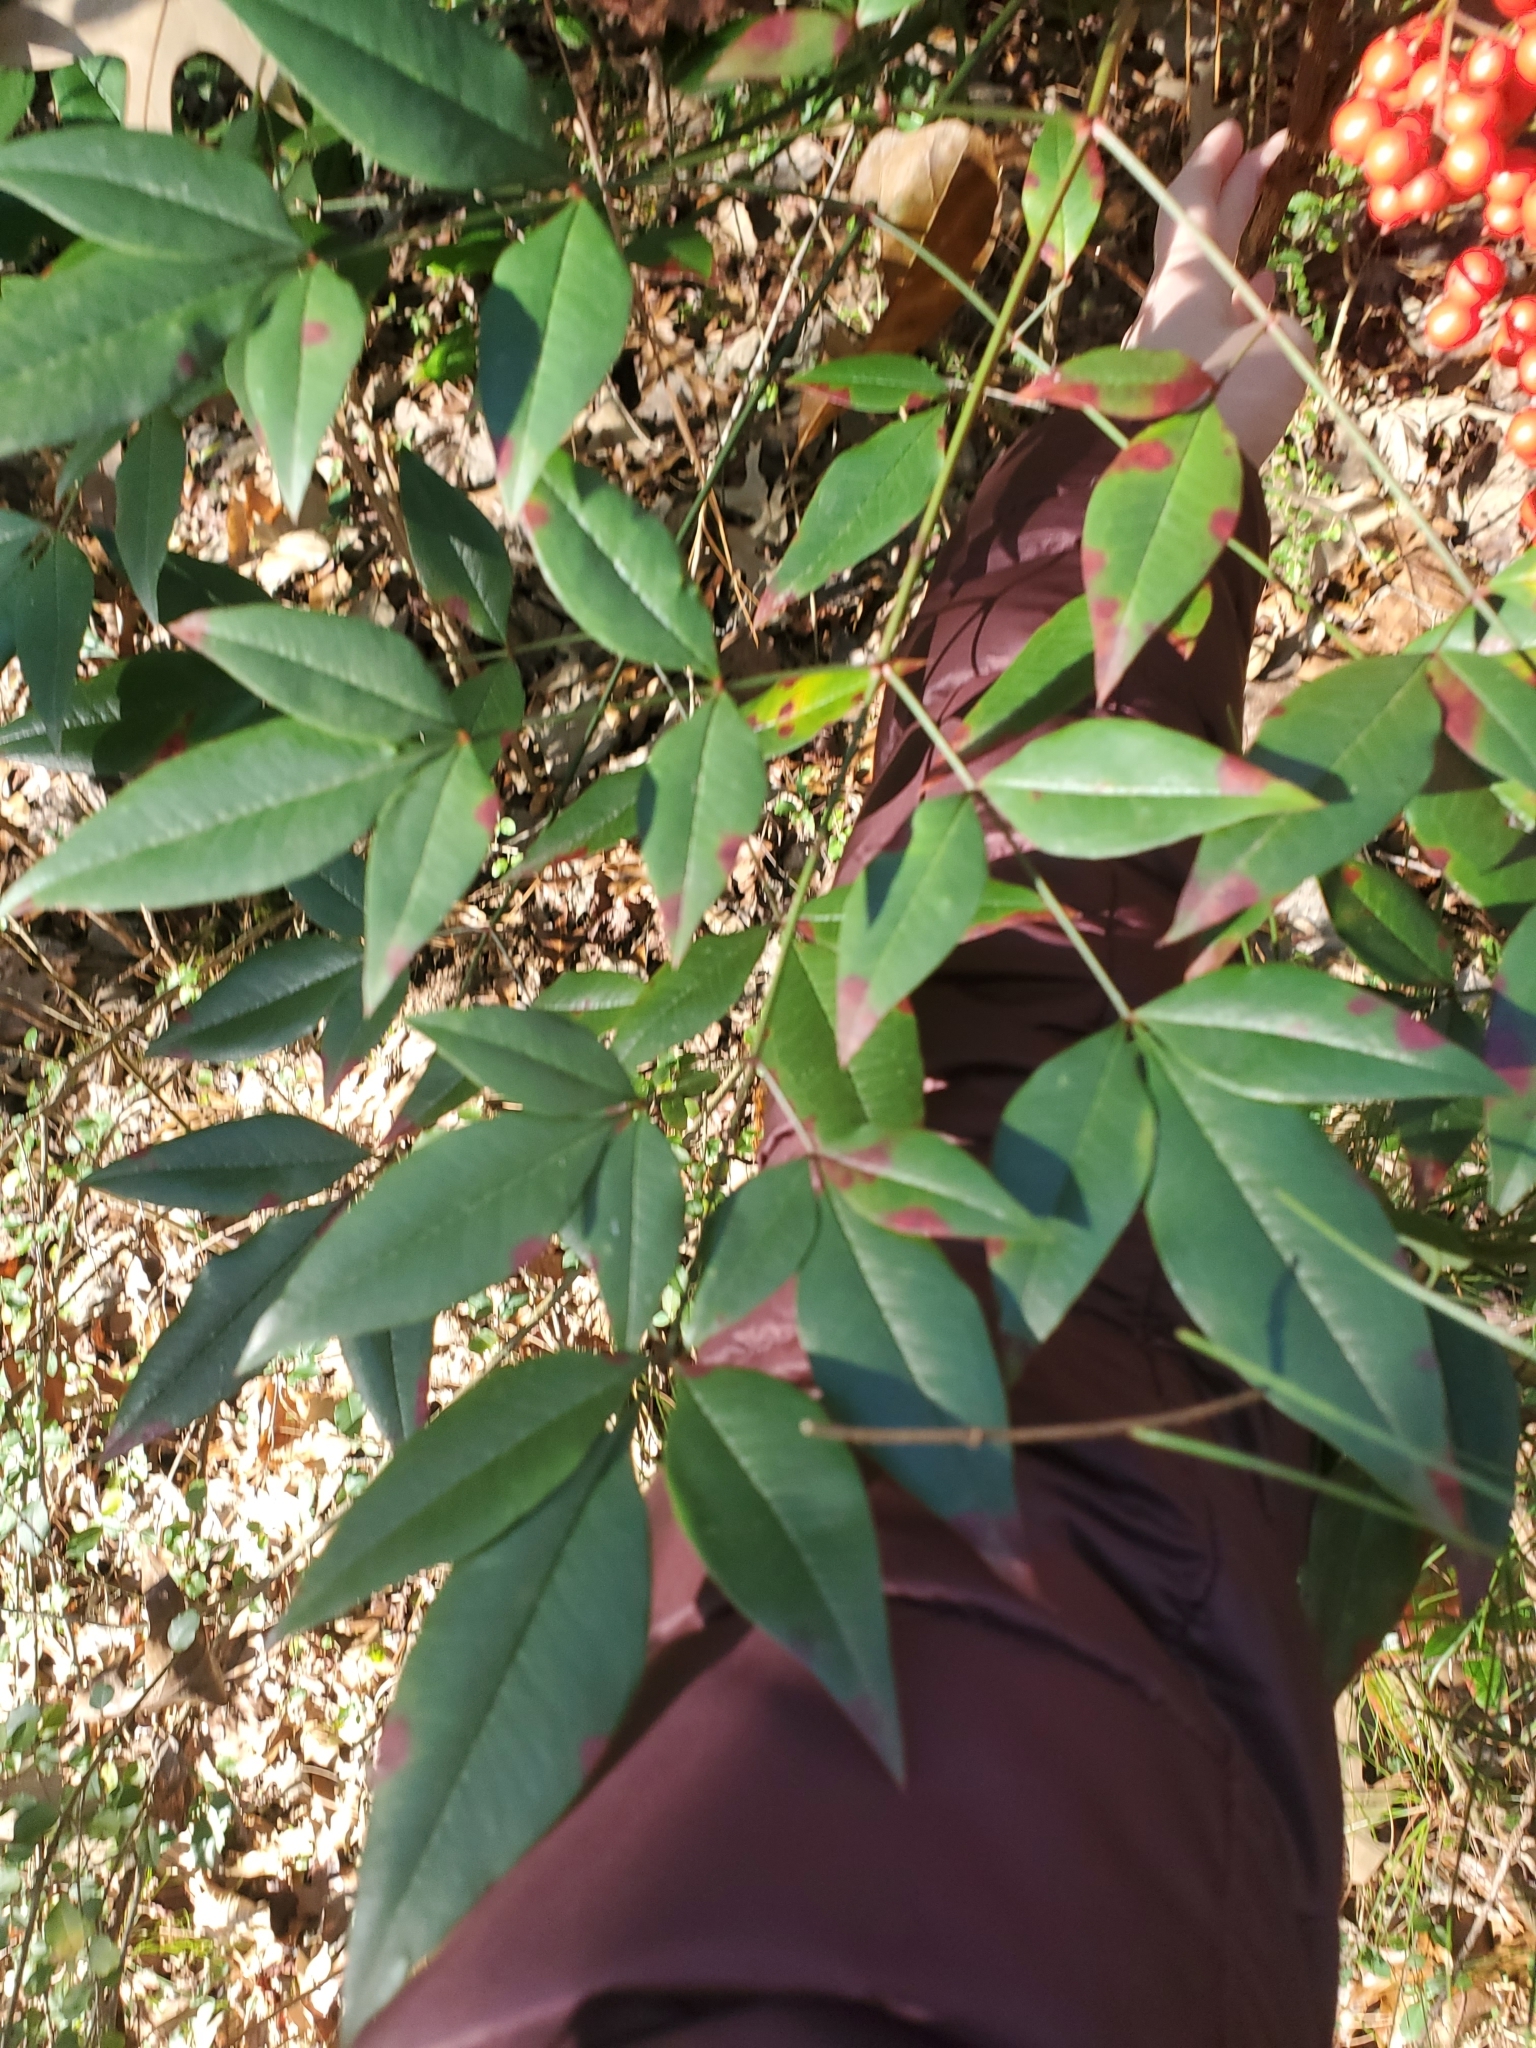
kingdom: Plantae
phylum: Tracheophyta
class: Magnoliopsida
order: Ranunculales
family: Berberidaceae
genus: Nandina
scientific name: Nandina domestica
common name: Sacred bamboo
